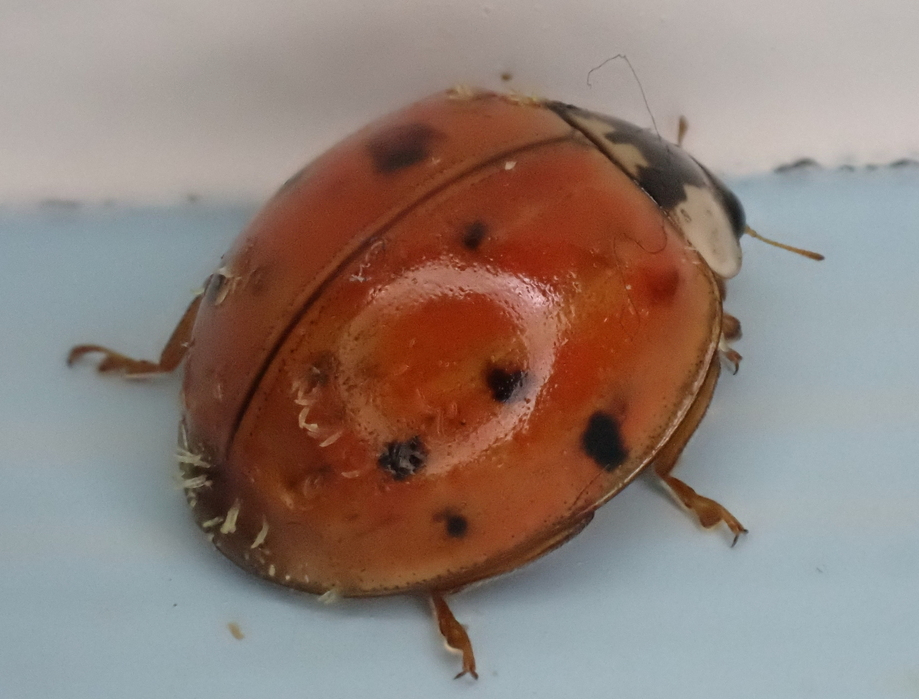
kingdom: Animalia
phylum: Arthropoda
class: Insecta
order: Coleoptera
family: Coccinellidae
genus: Harmonia
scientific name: Harmonia axyridis
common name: Harlequin ladybird
